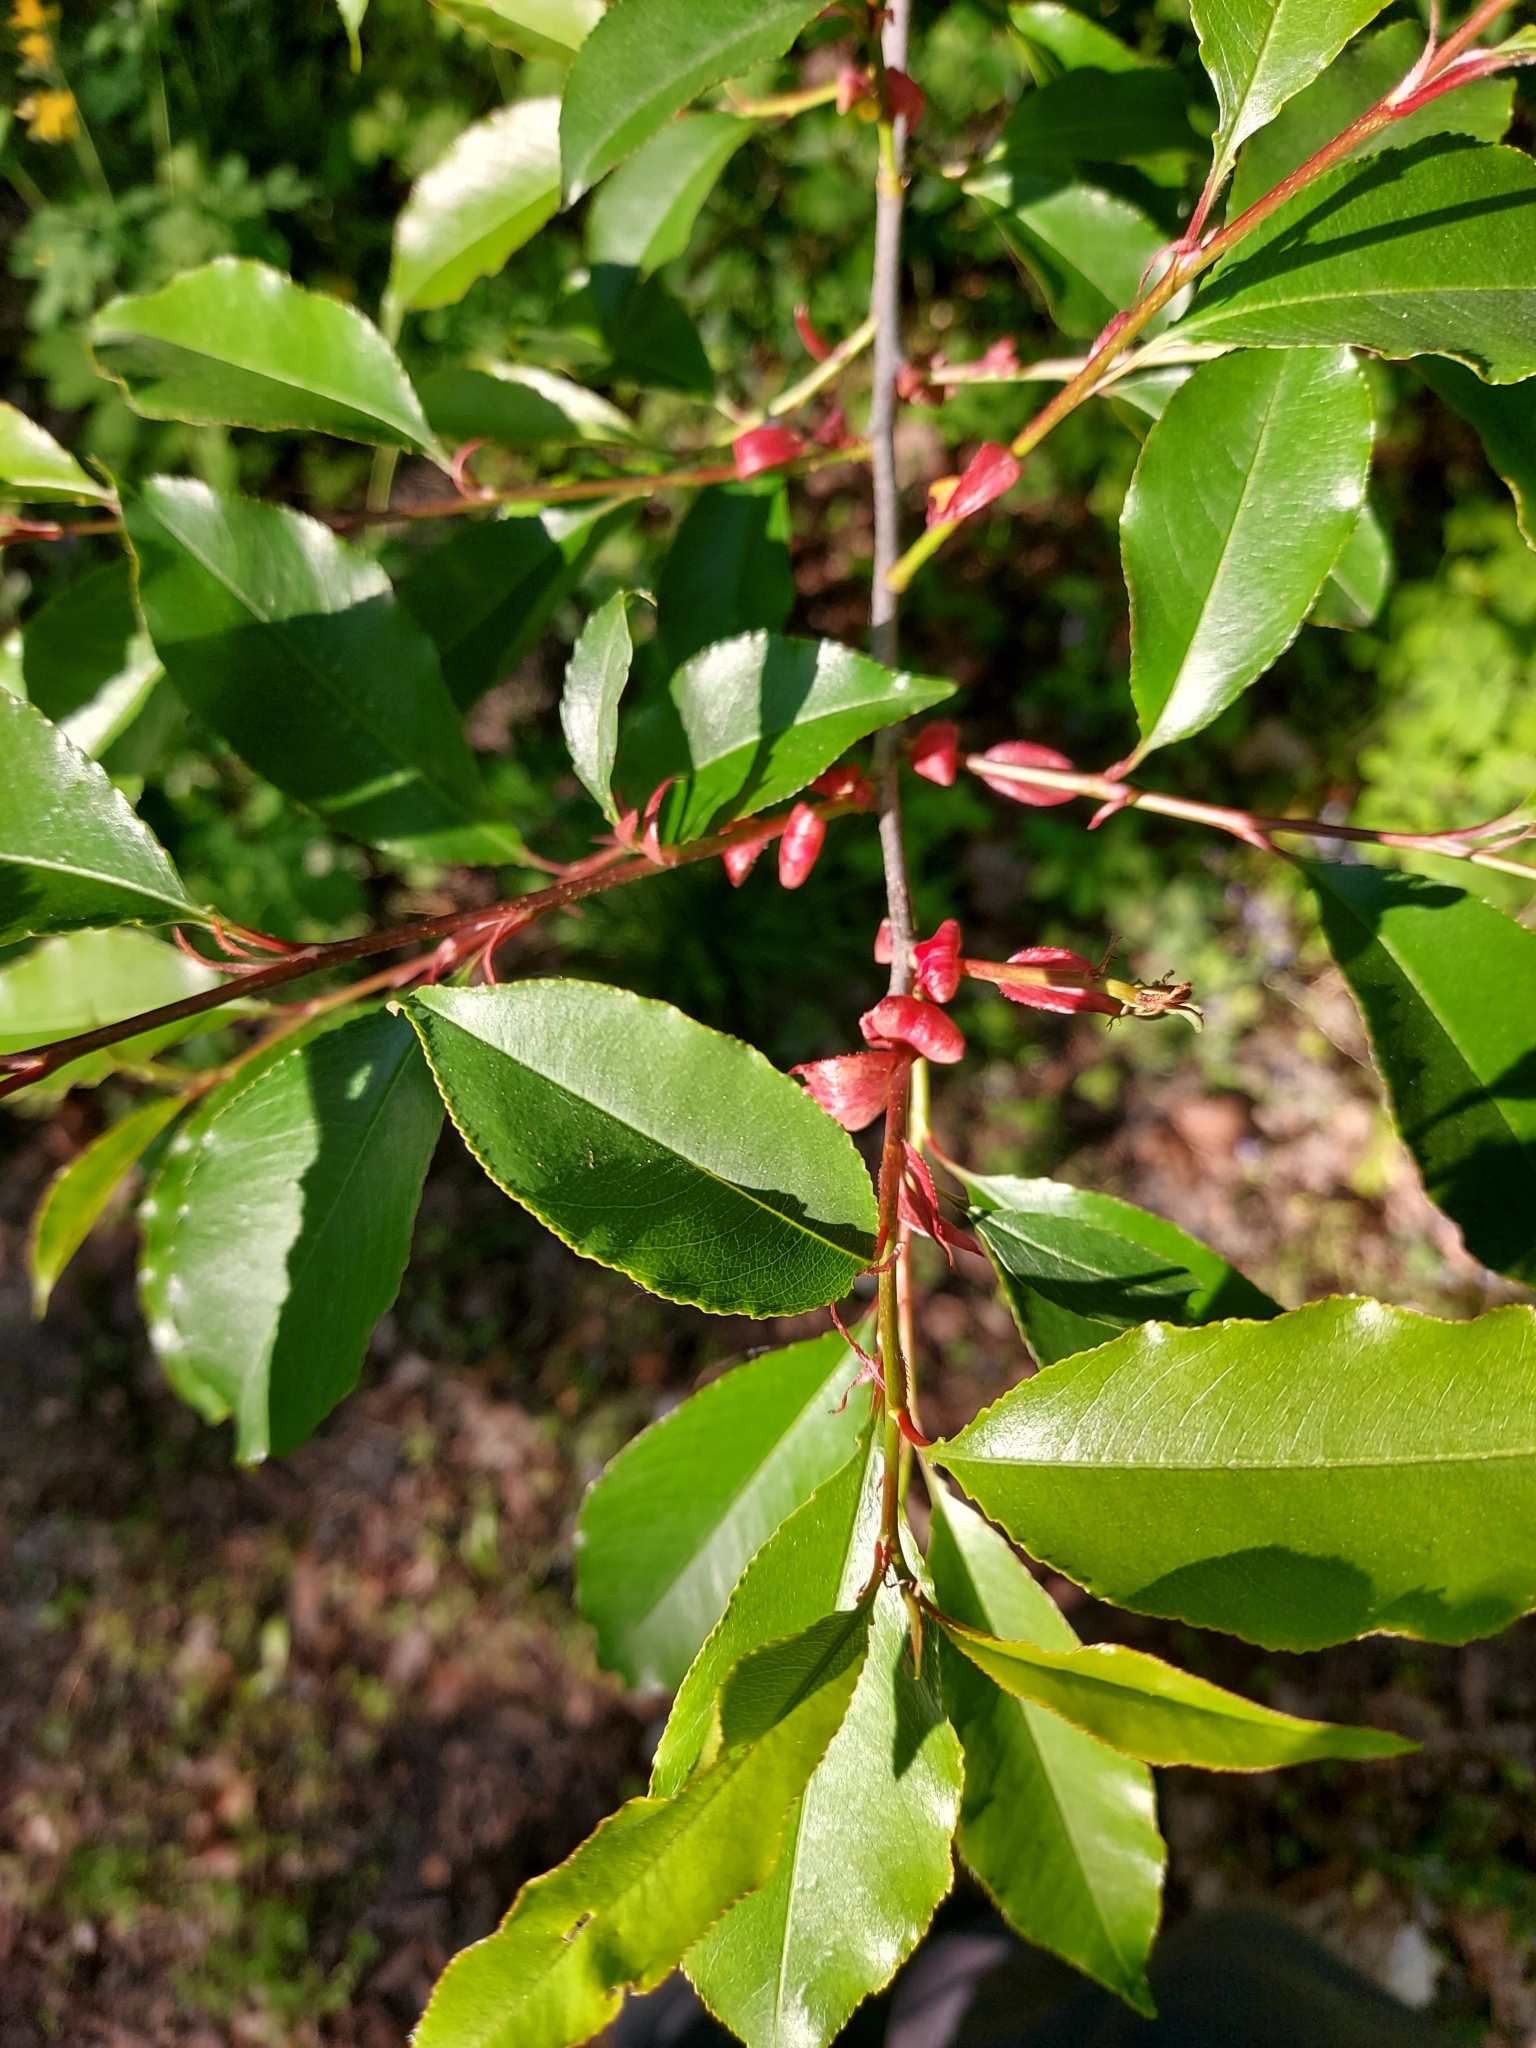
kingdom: Plantae
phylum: Tracheophyta
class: Magnoliopsida
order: Rosales
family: Rosaceae
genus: Prunus
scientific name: Prunus serotina
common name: Black cherry
